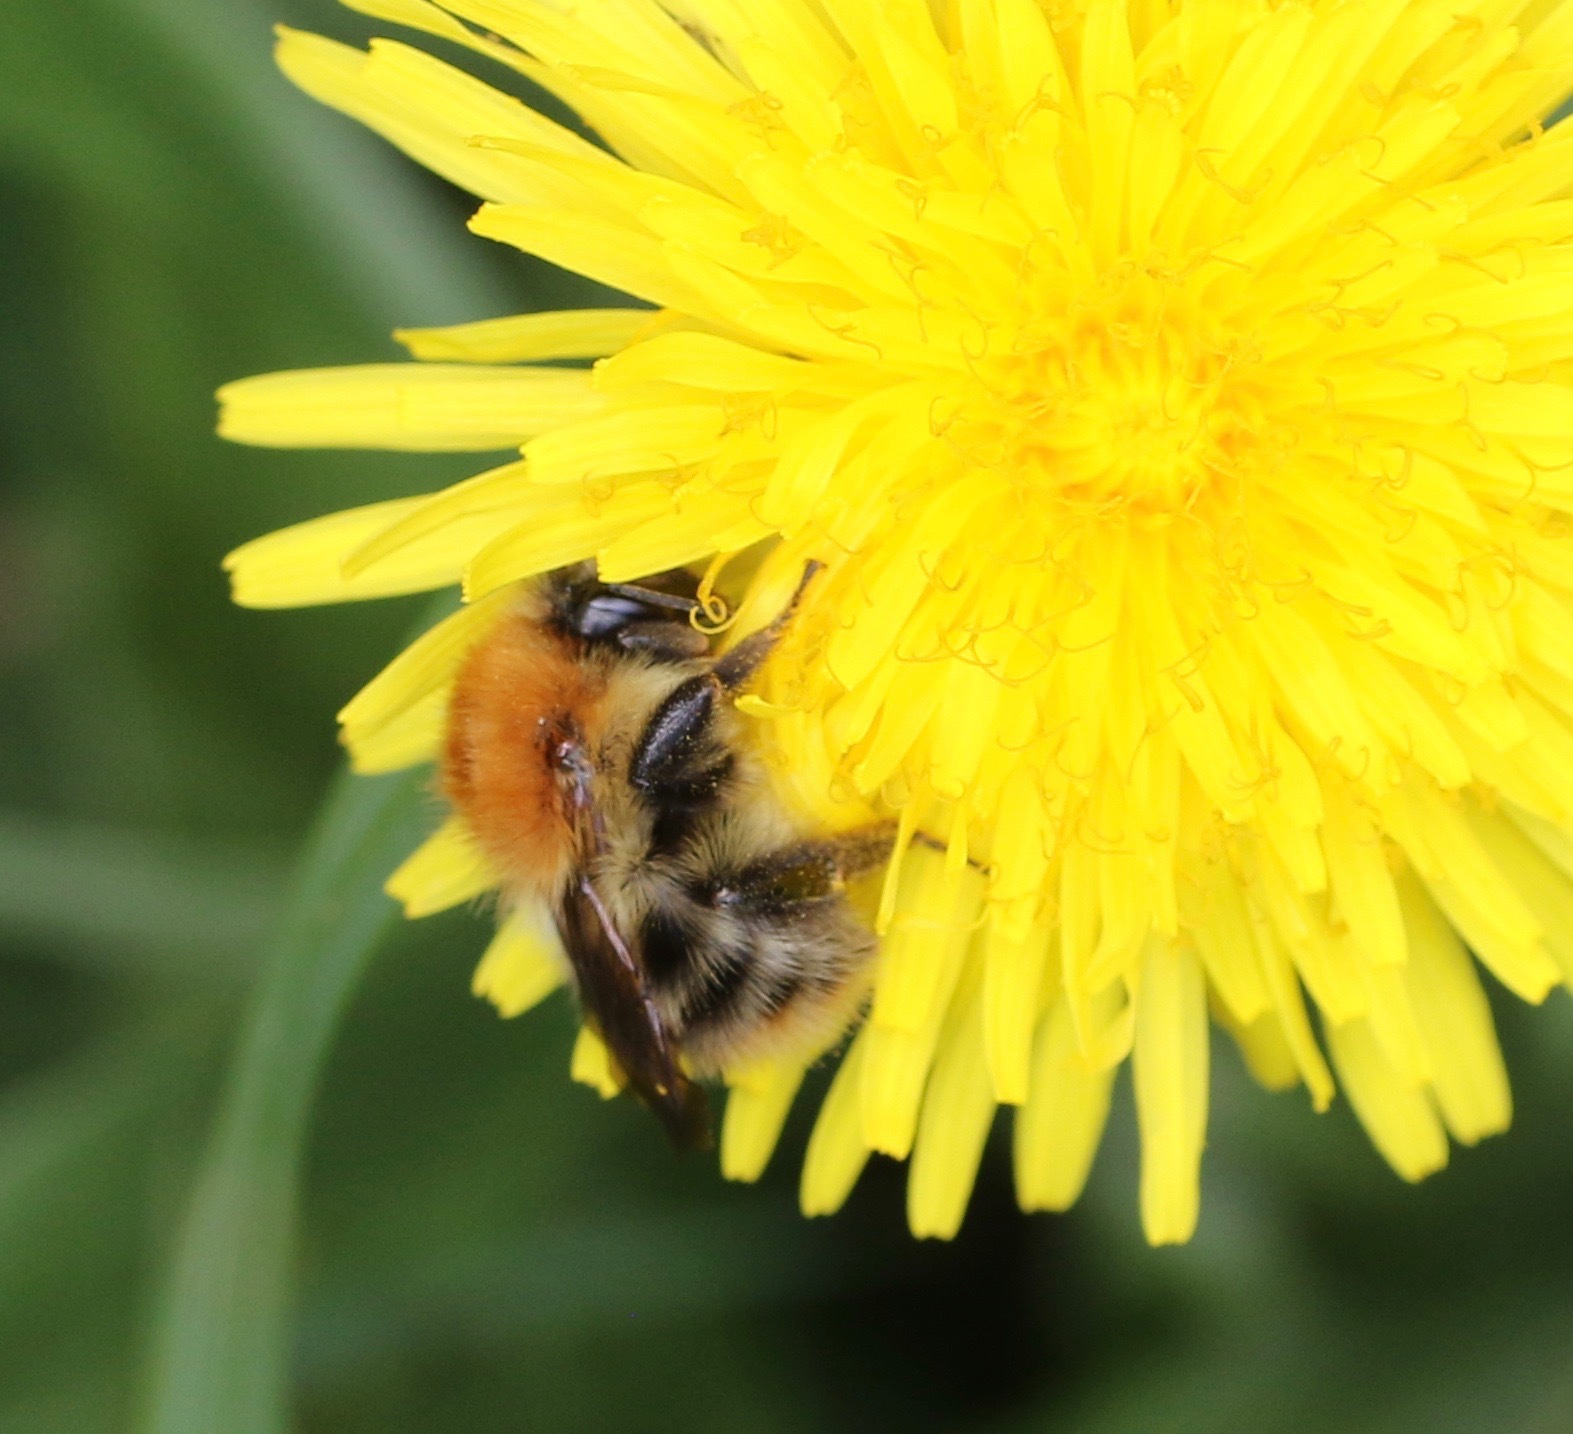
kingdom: Animalia
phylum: Arthropoda
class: Insecta
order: Hymenoptera
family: Apidae
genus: Bombus
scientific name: Bombus pascuorum
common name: Common carder bee
